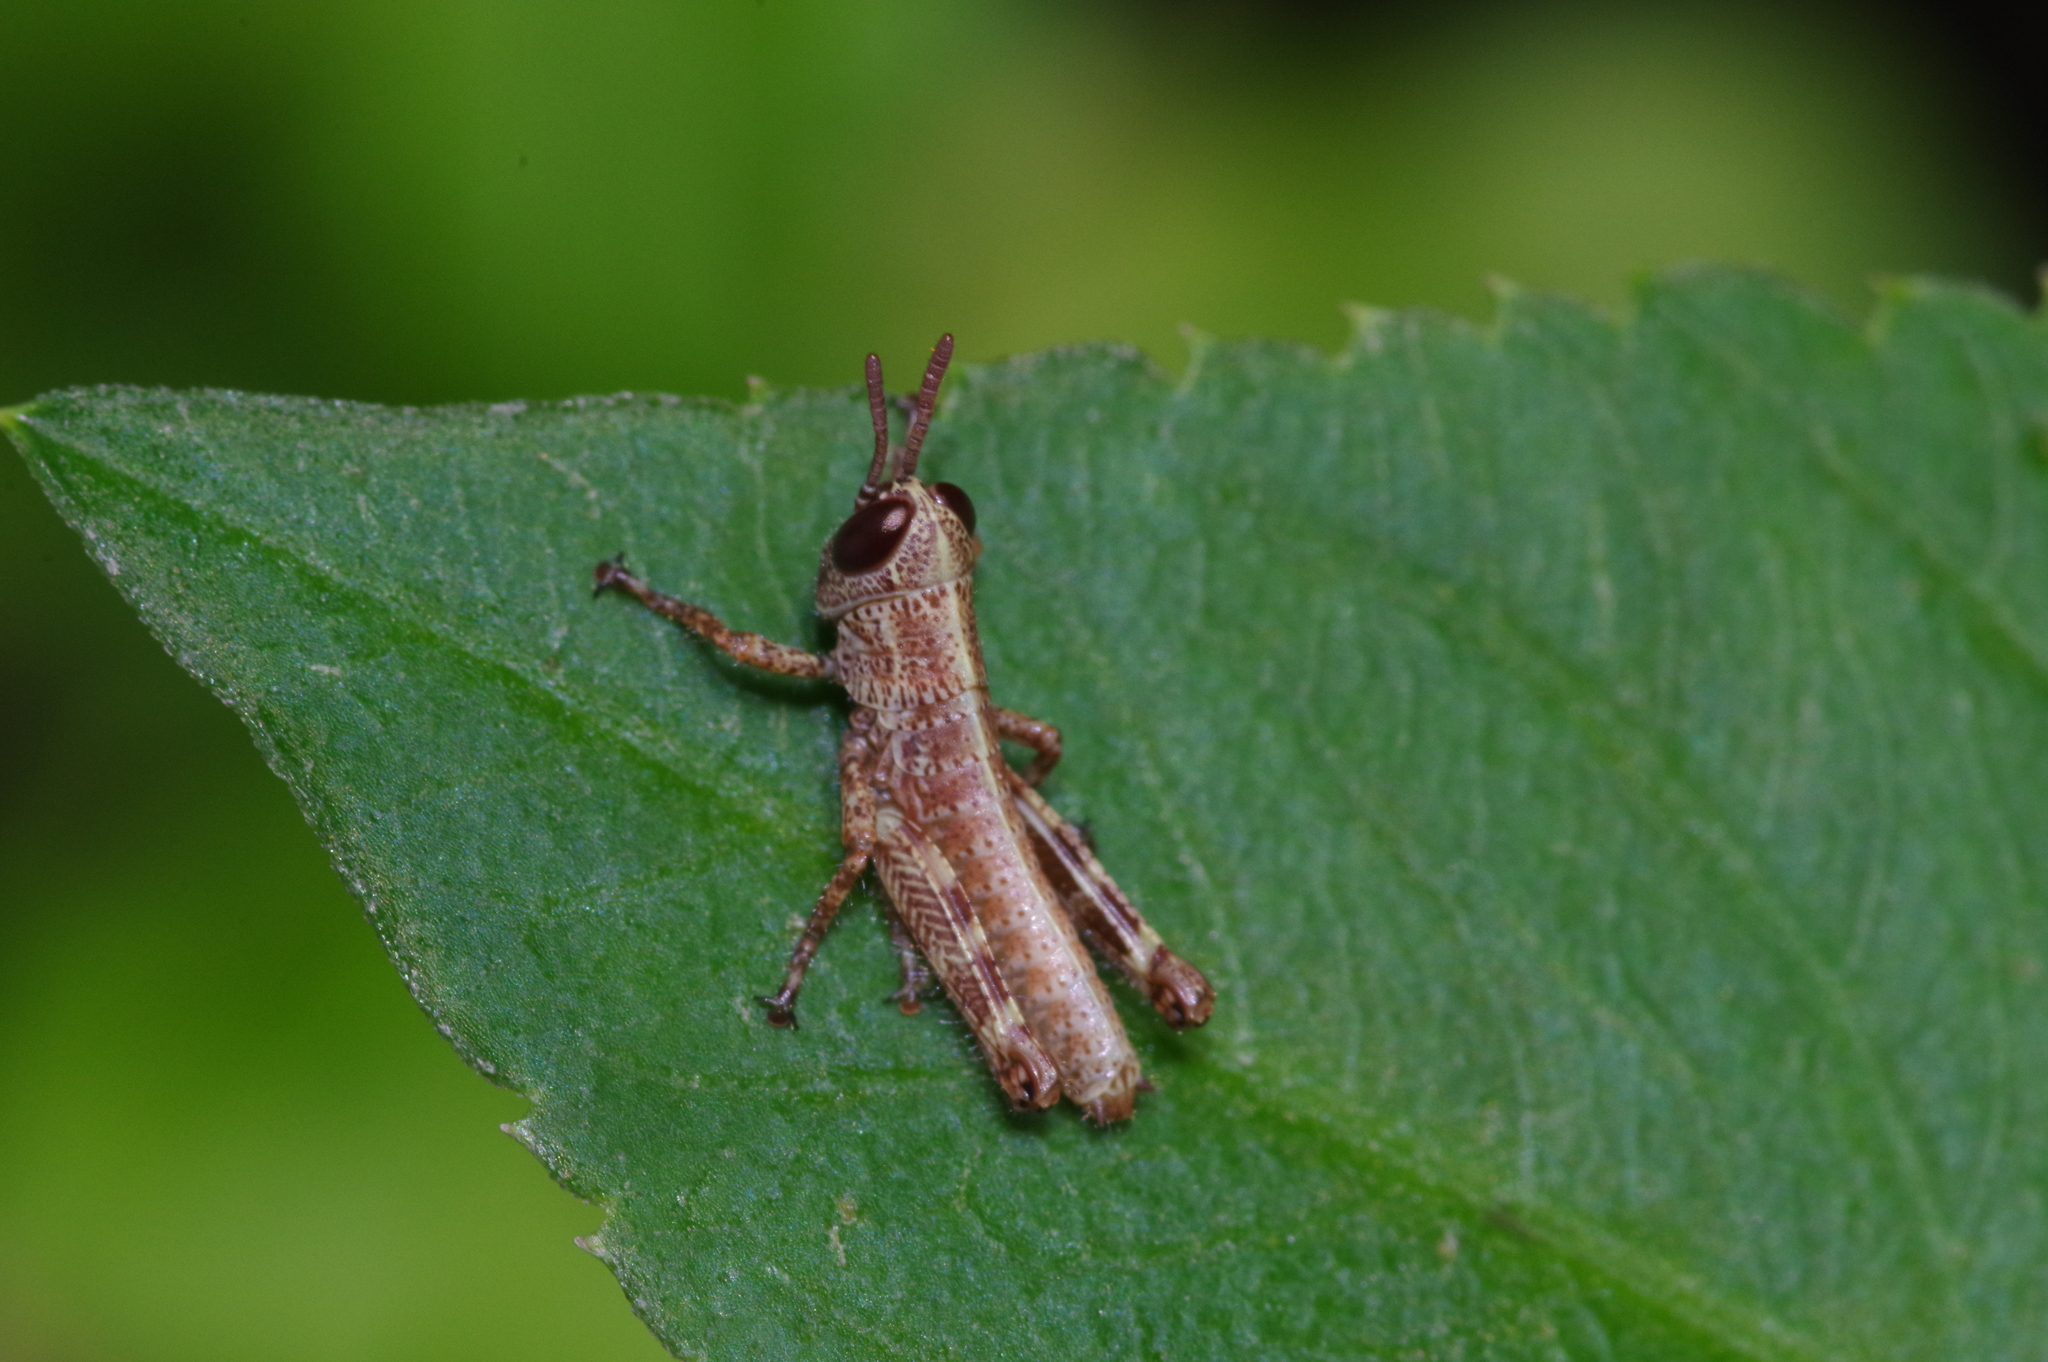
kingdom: Animalia
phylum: Arthropoda
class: Insecta
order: Orthoptera
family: Acrididae
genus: Fruhstorferiola
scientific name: Fruhstorferiola okinawaensis
